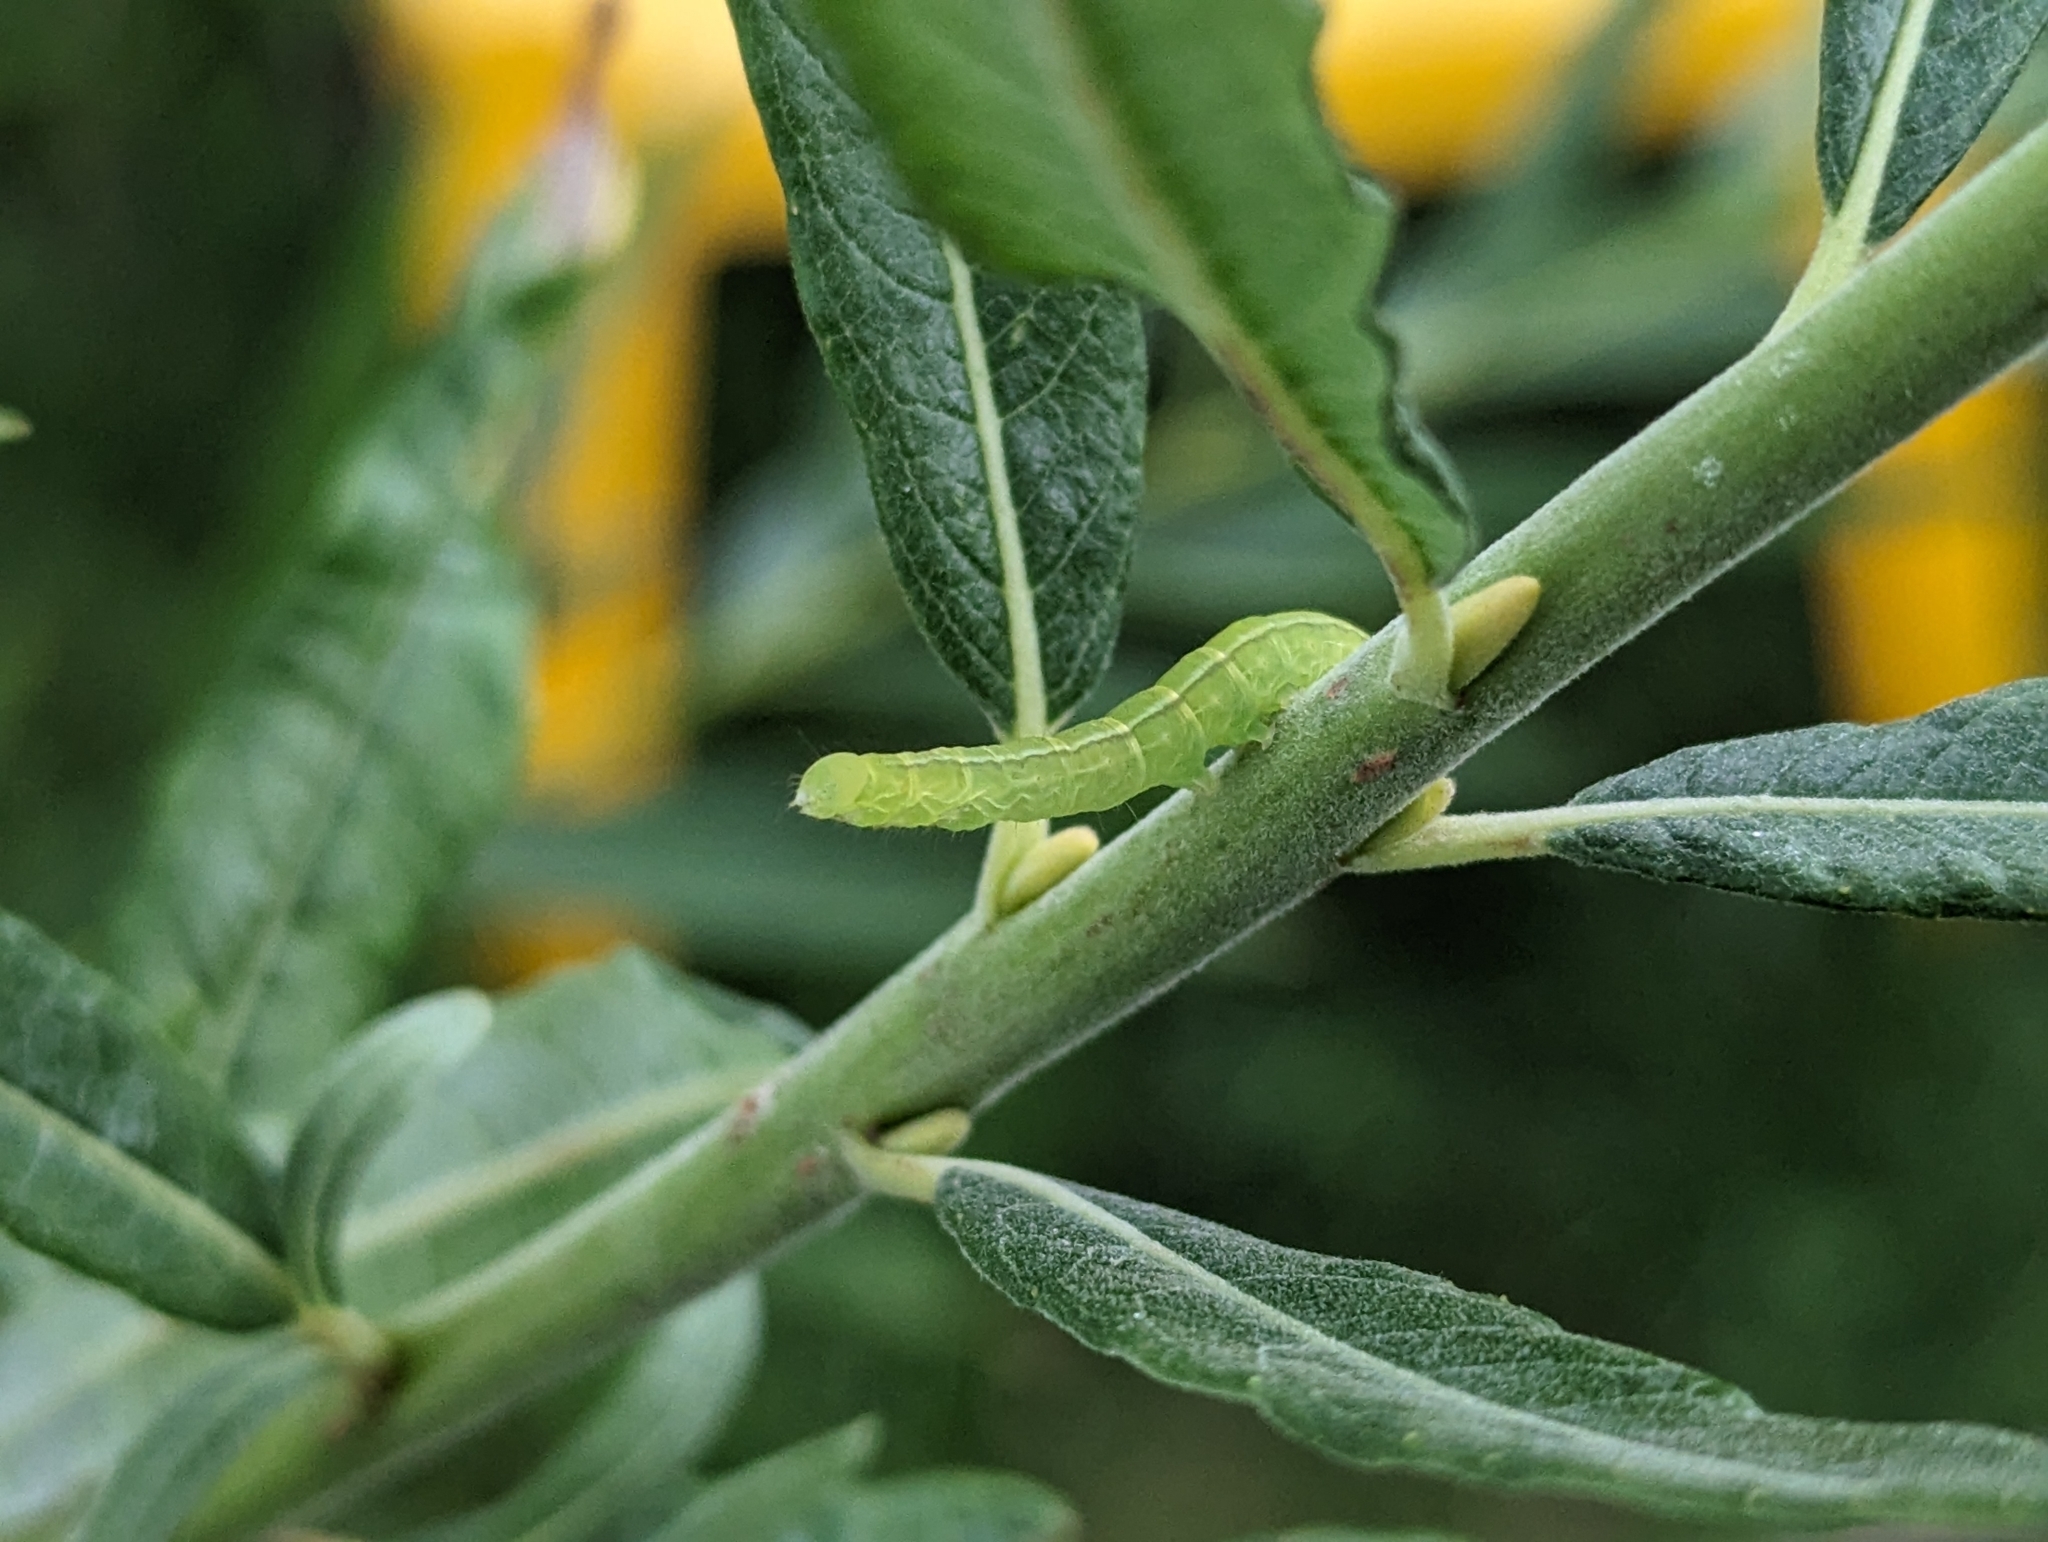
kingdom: Animalia
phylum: Arthropoda
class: Insecta
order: Lepidoptera
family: Erebidae
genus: Scoliopteryx
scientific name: Scoliopteryx libatrix
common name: Herald
